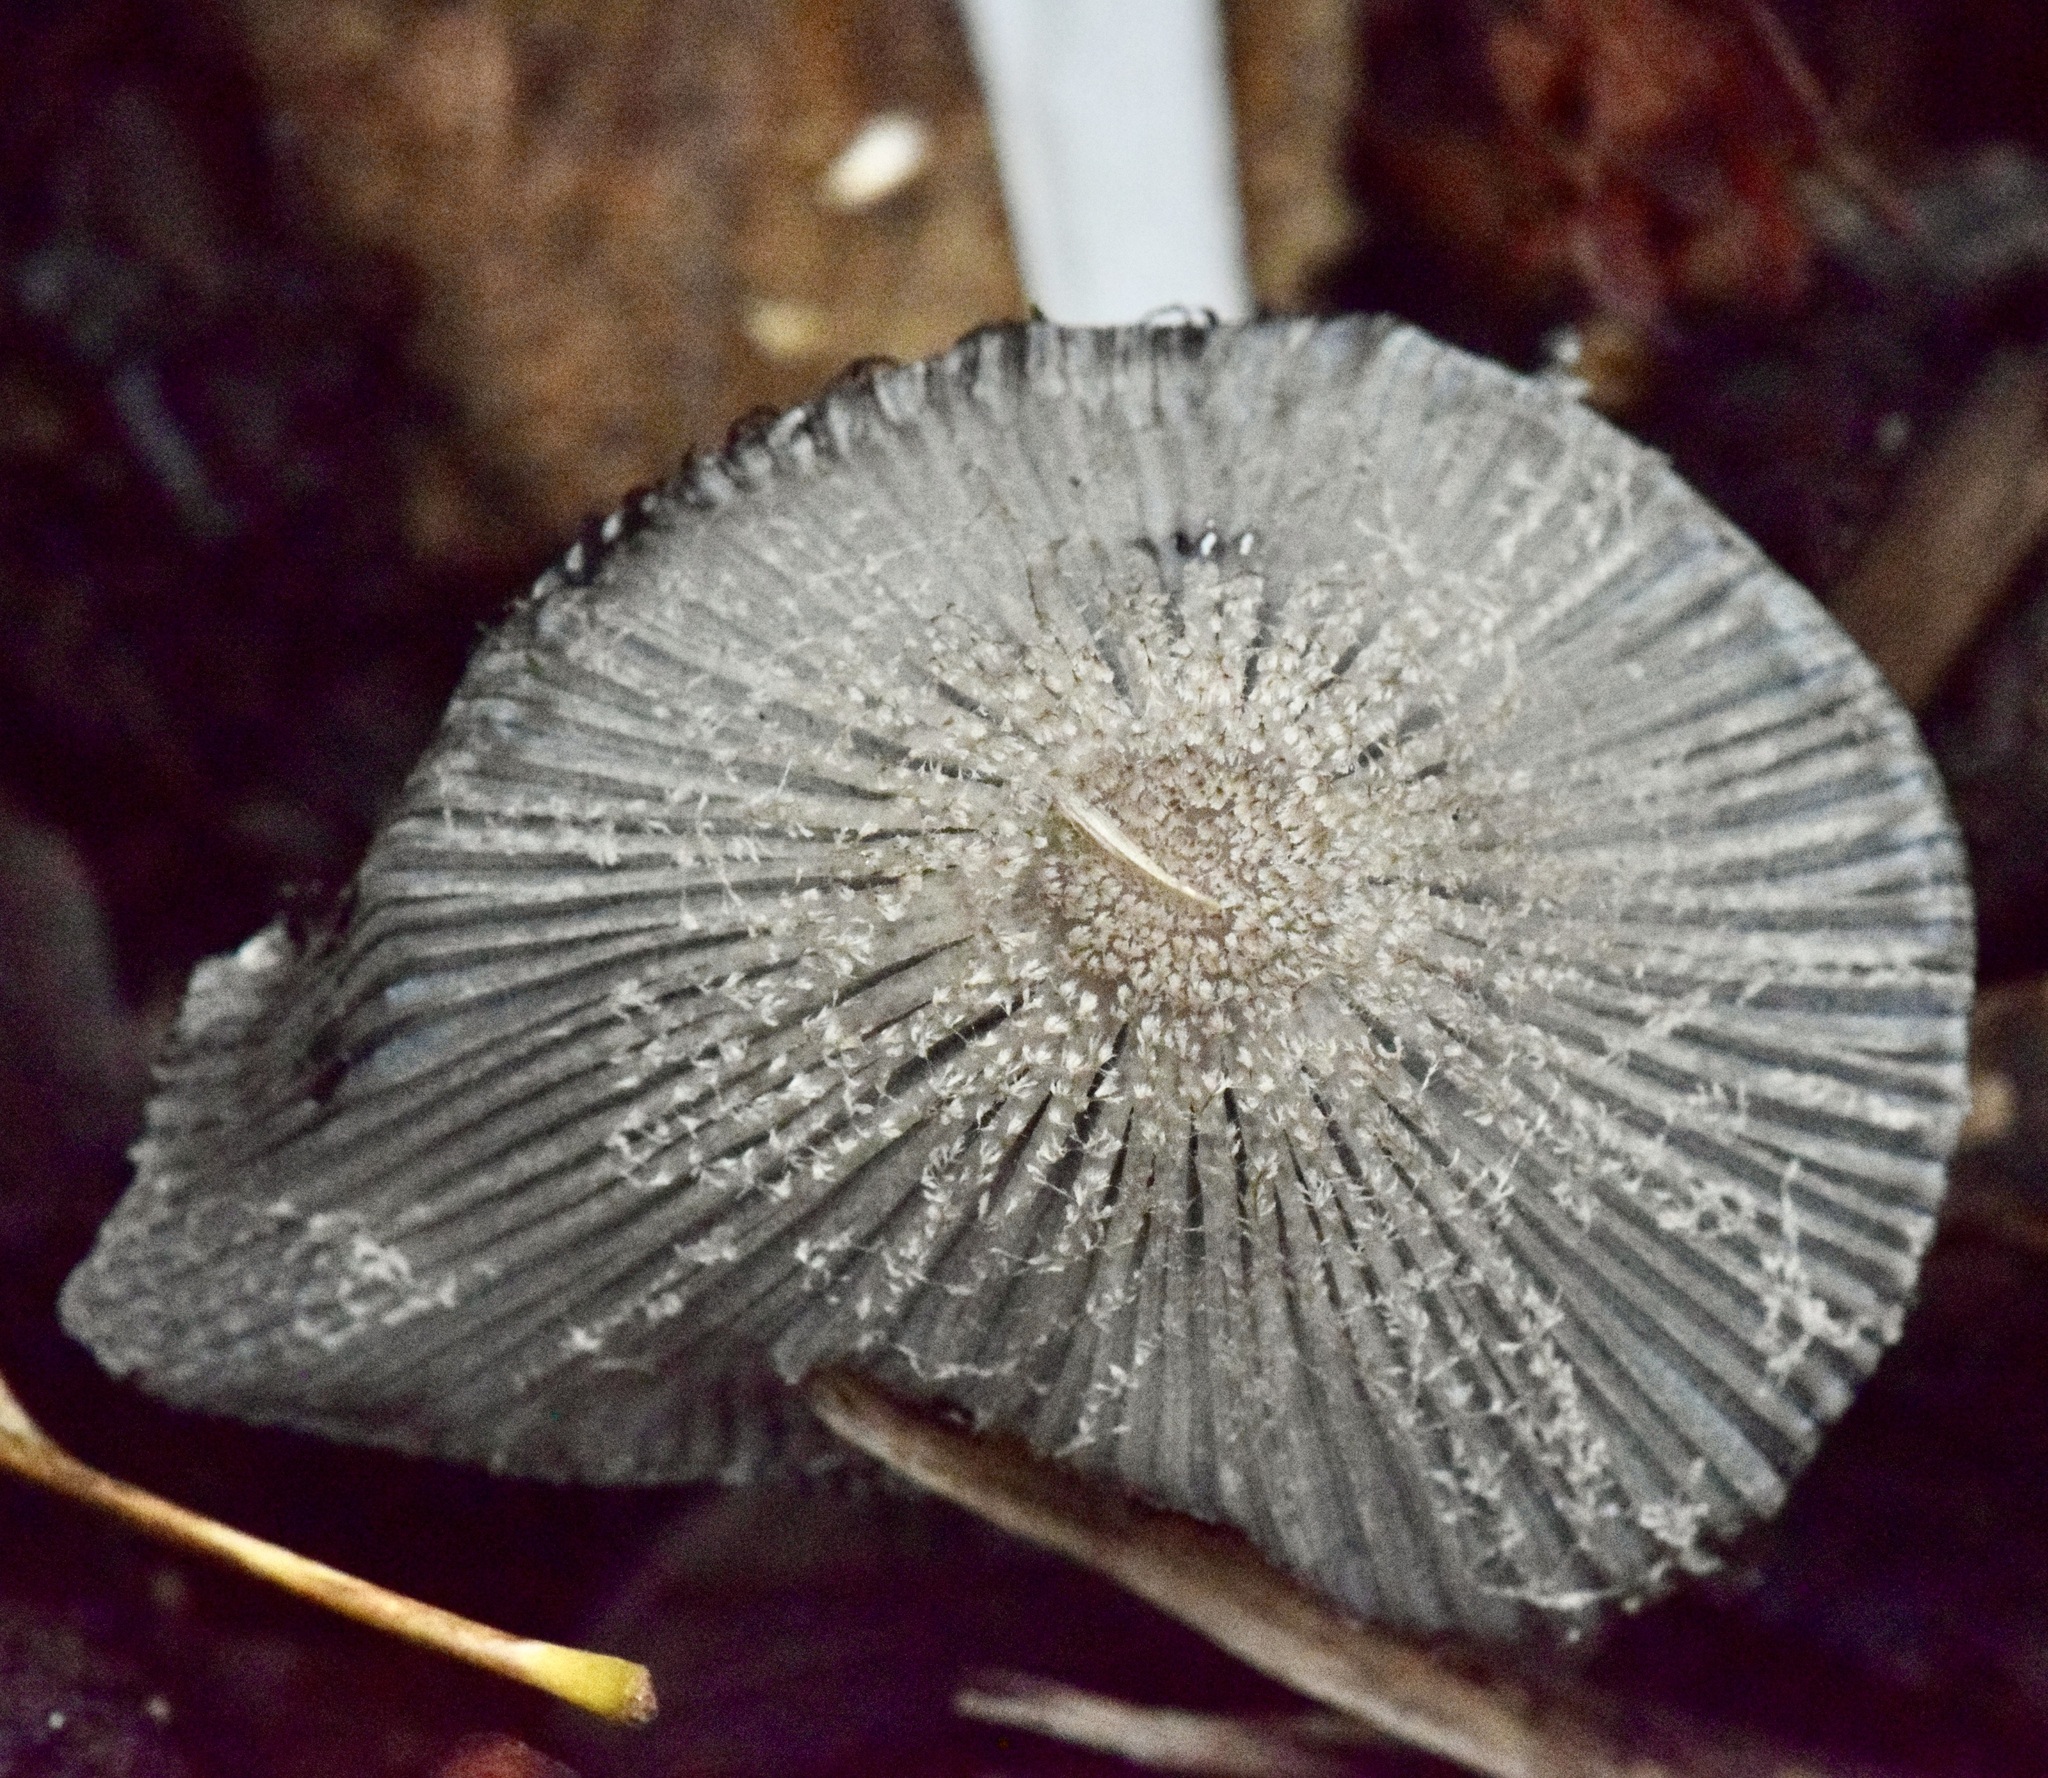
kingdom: Fungi
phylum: Basidiomycota
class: Agaricomycetes
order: Agaricales
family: Psathyrellaceae
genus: Coprinopsis
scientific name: Coprinopsis lagopus
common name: Hare'sfoot inkcap
